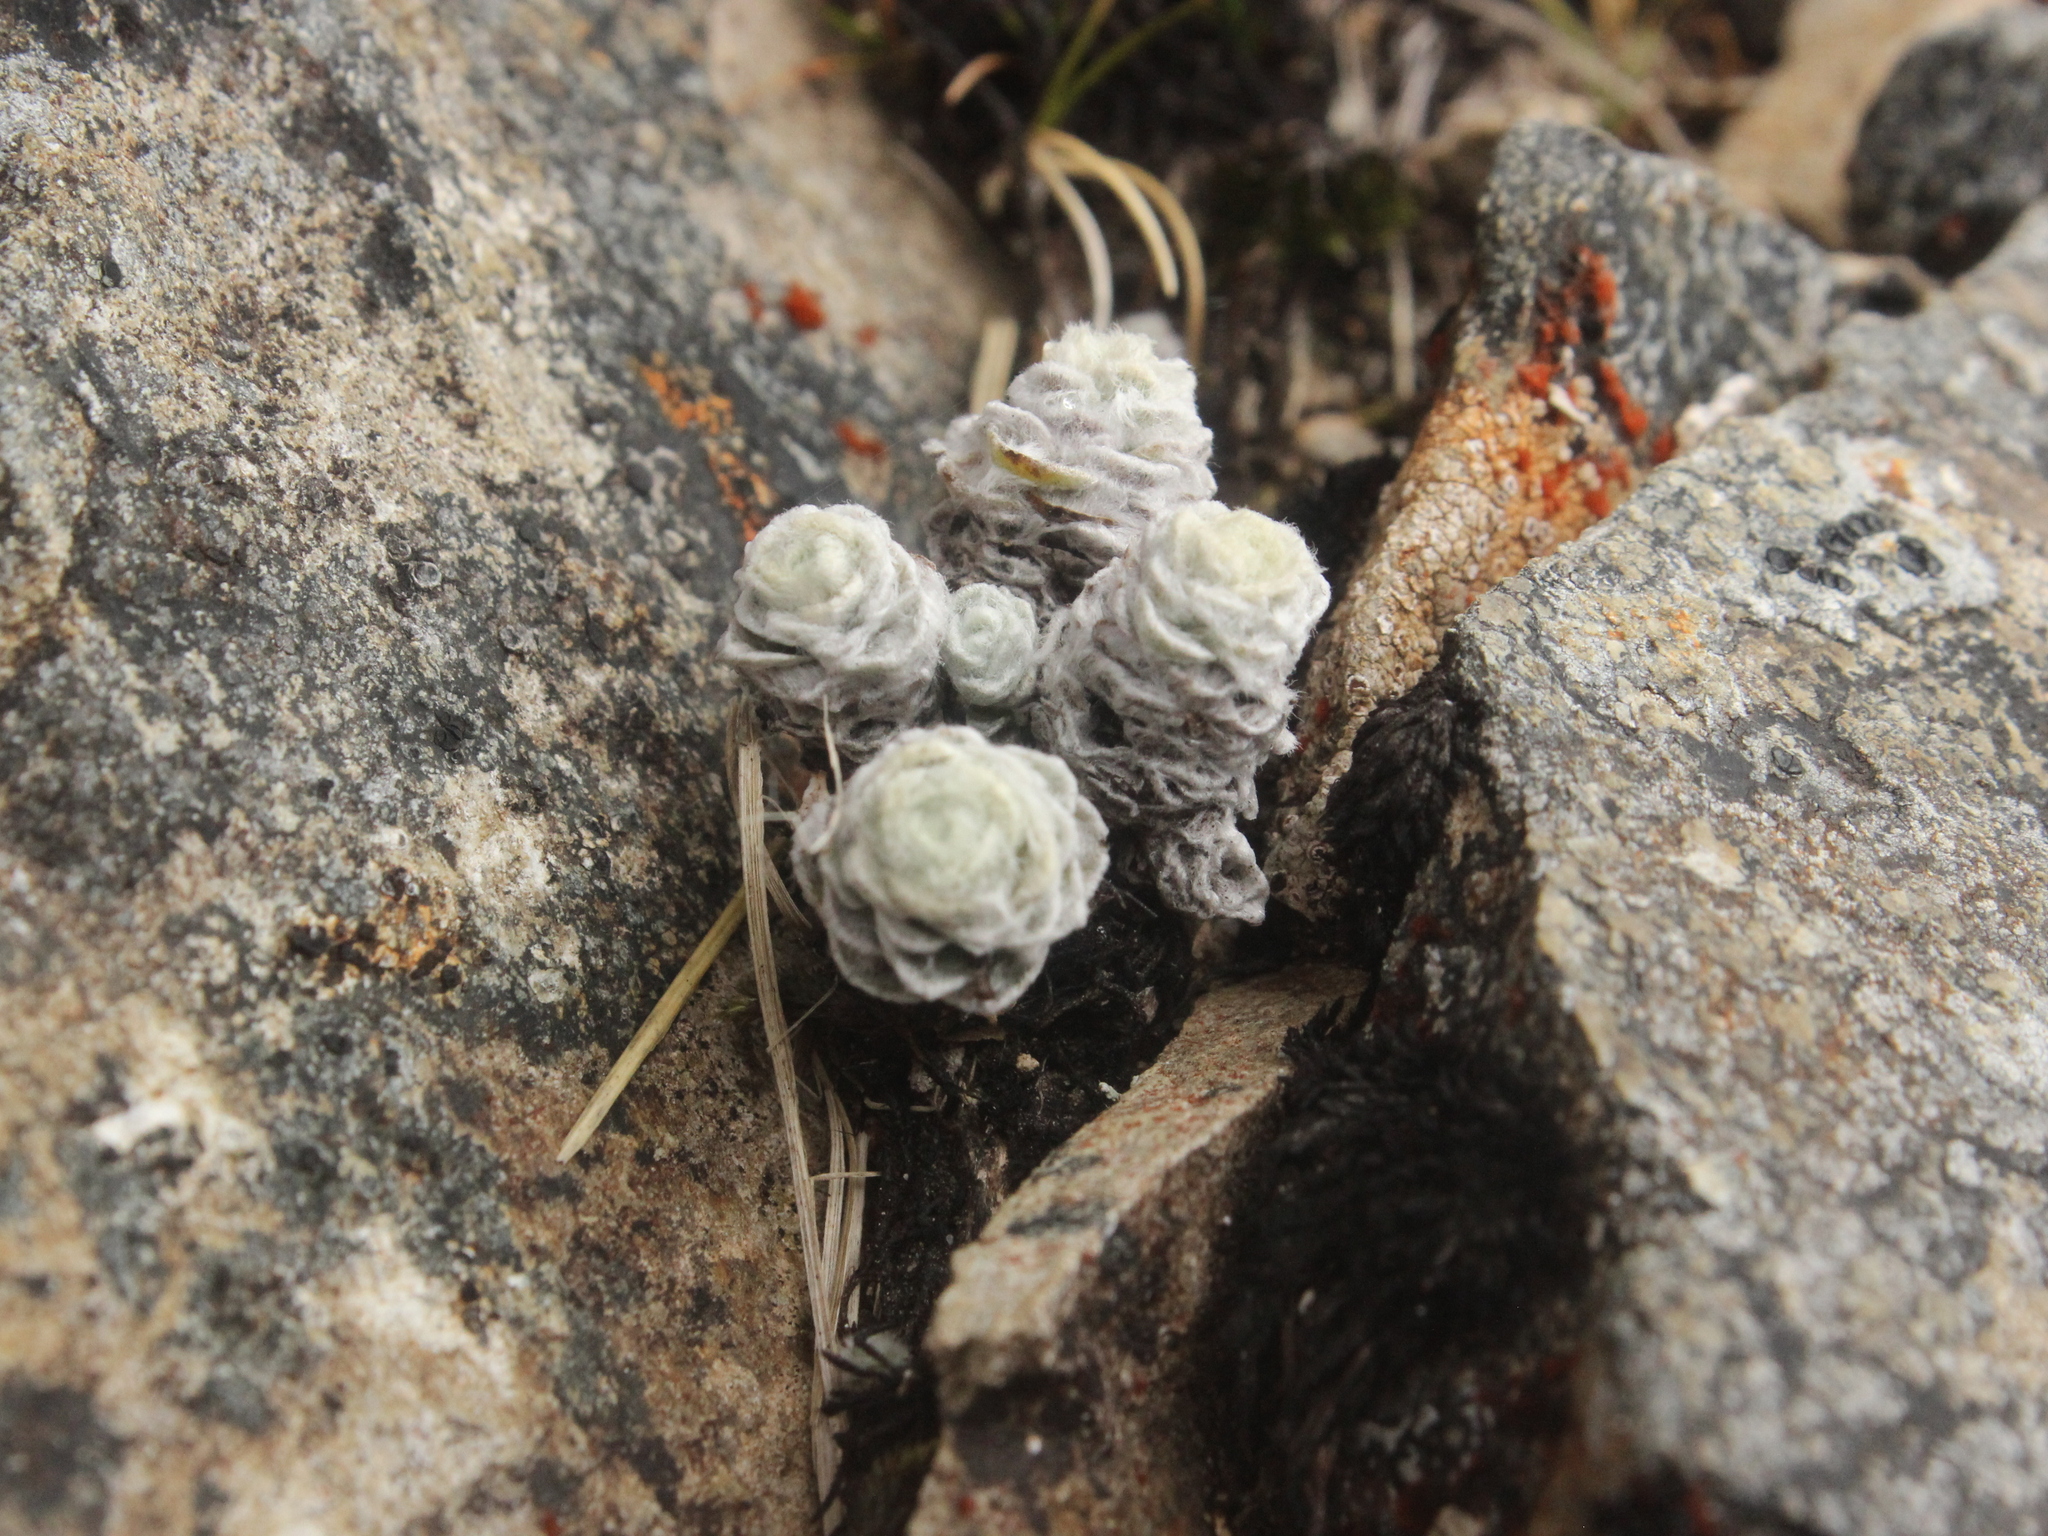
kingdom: Plantae
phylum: Tracheophyta
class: Magnoliopsida
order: Asterales
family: Asteraceae
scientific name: Asteraceae
